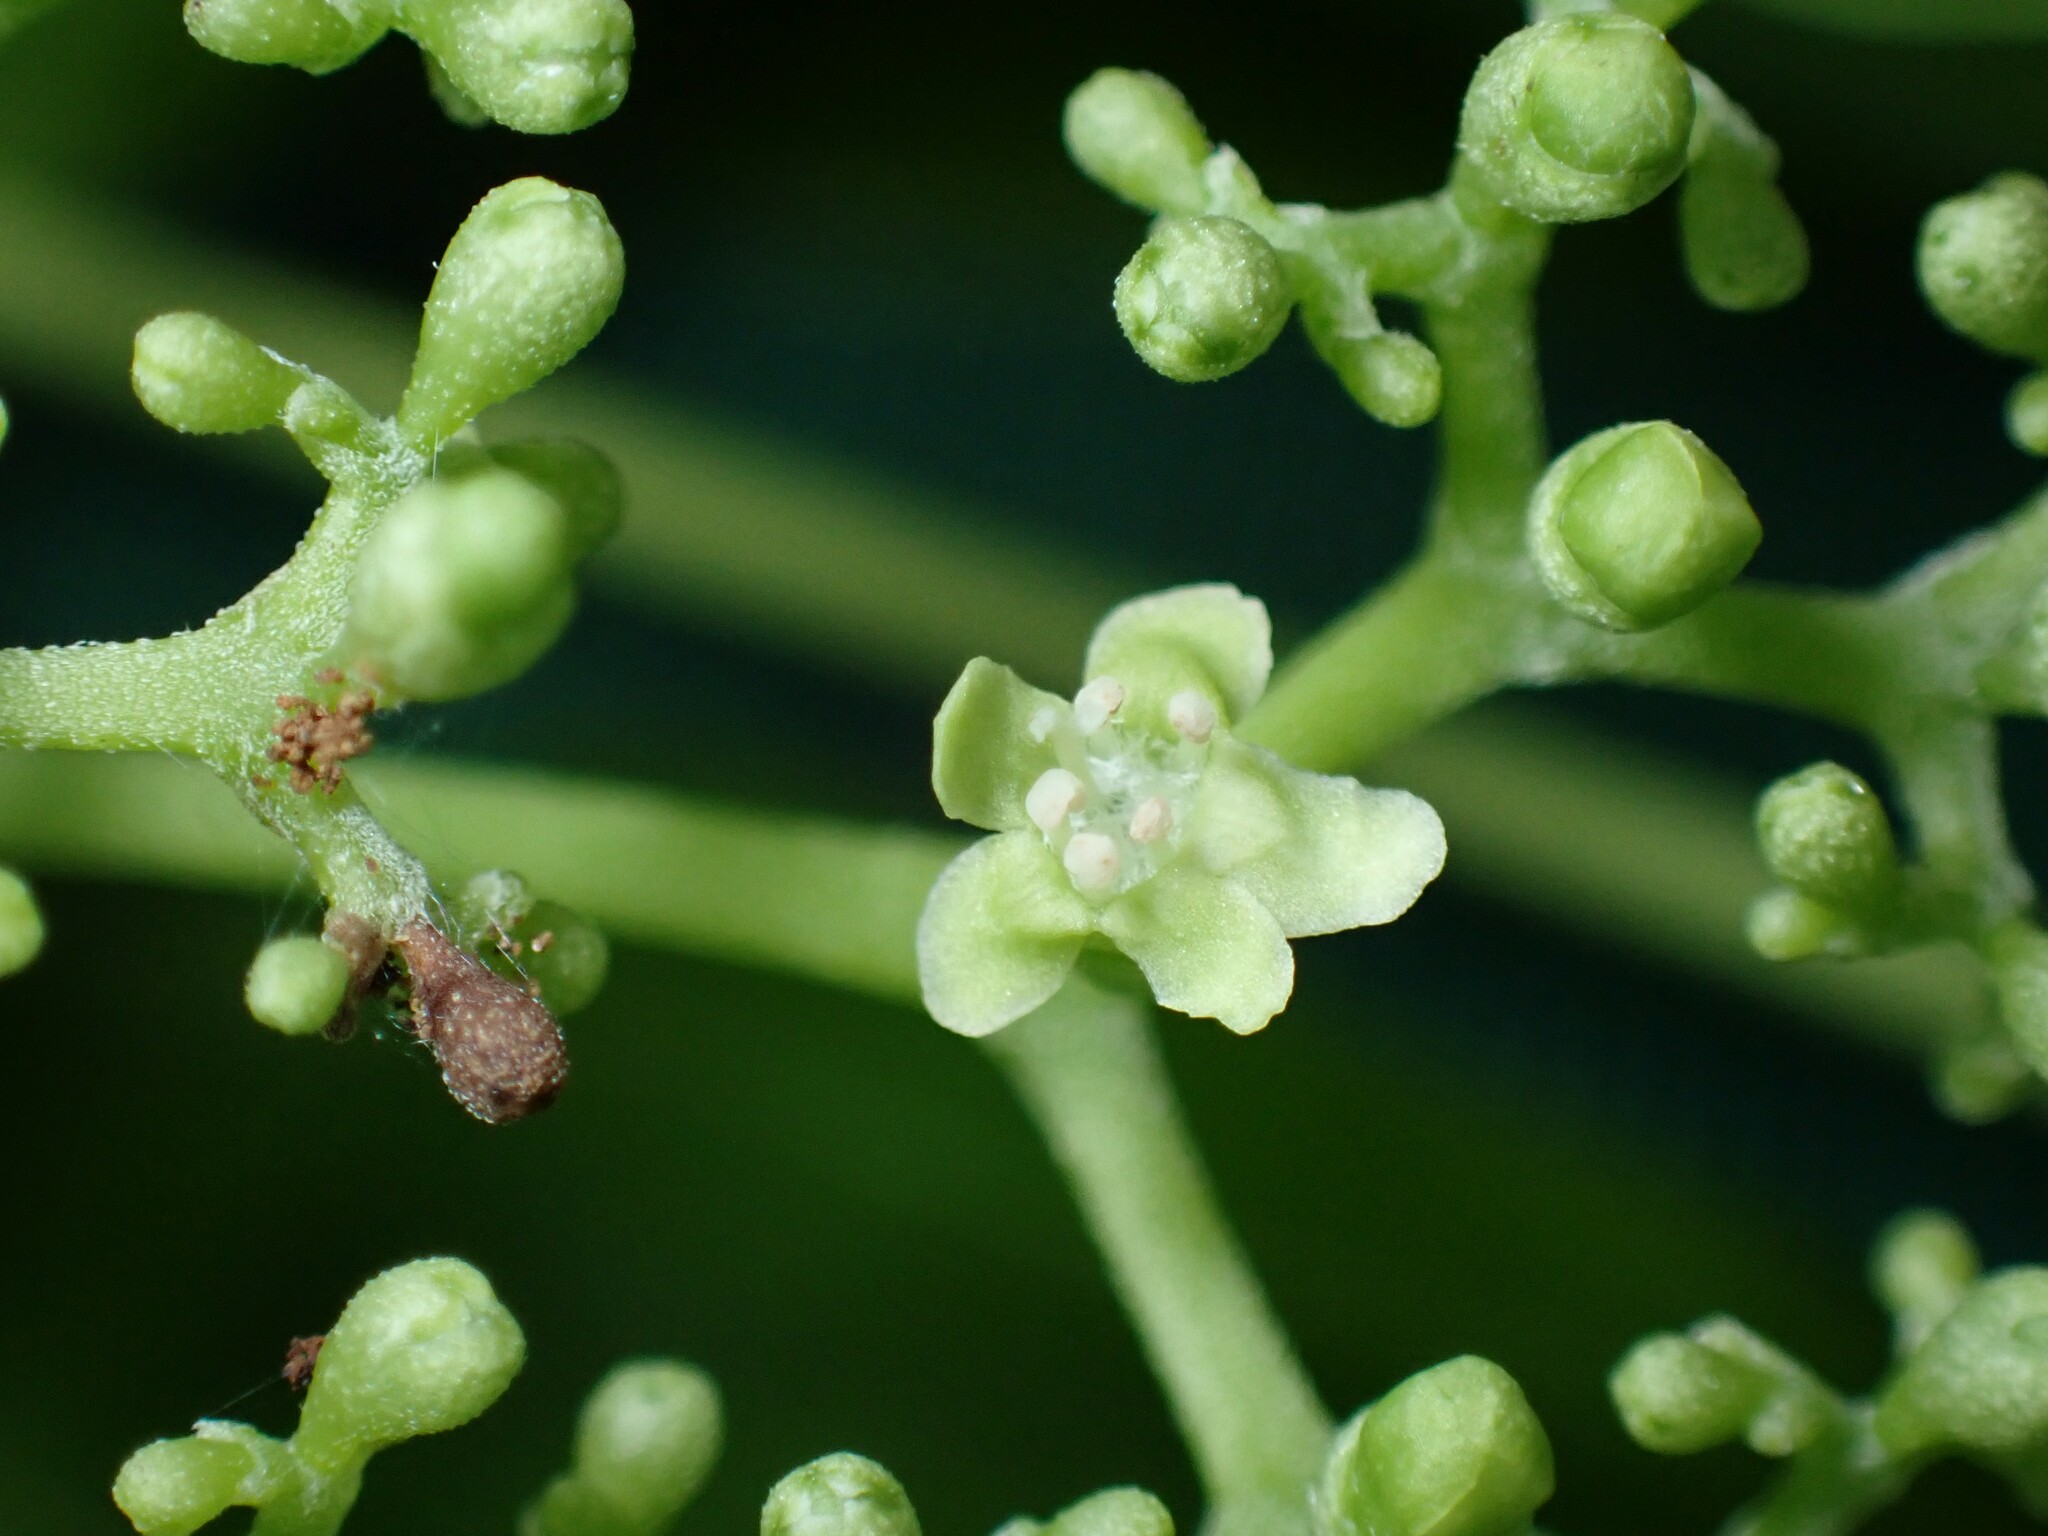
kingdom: Plantae
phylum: Tracheophyta
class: Magnoliopsida
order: Lamiales
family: Lamiaceae
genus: Premna
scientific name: Premna serratifolia
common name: Bastard guelder
